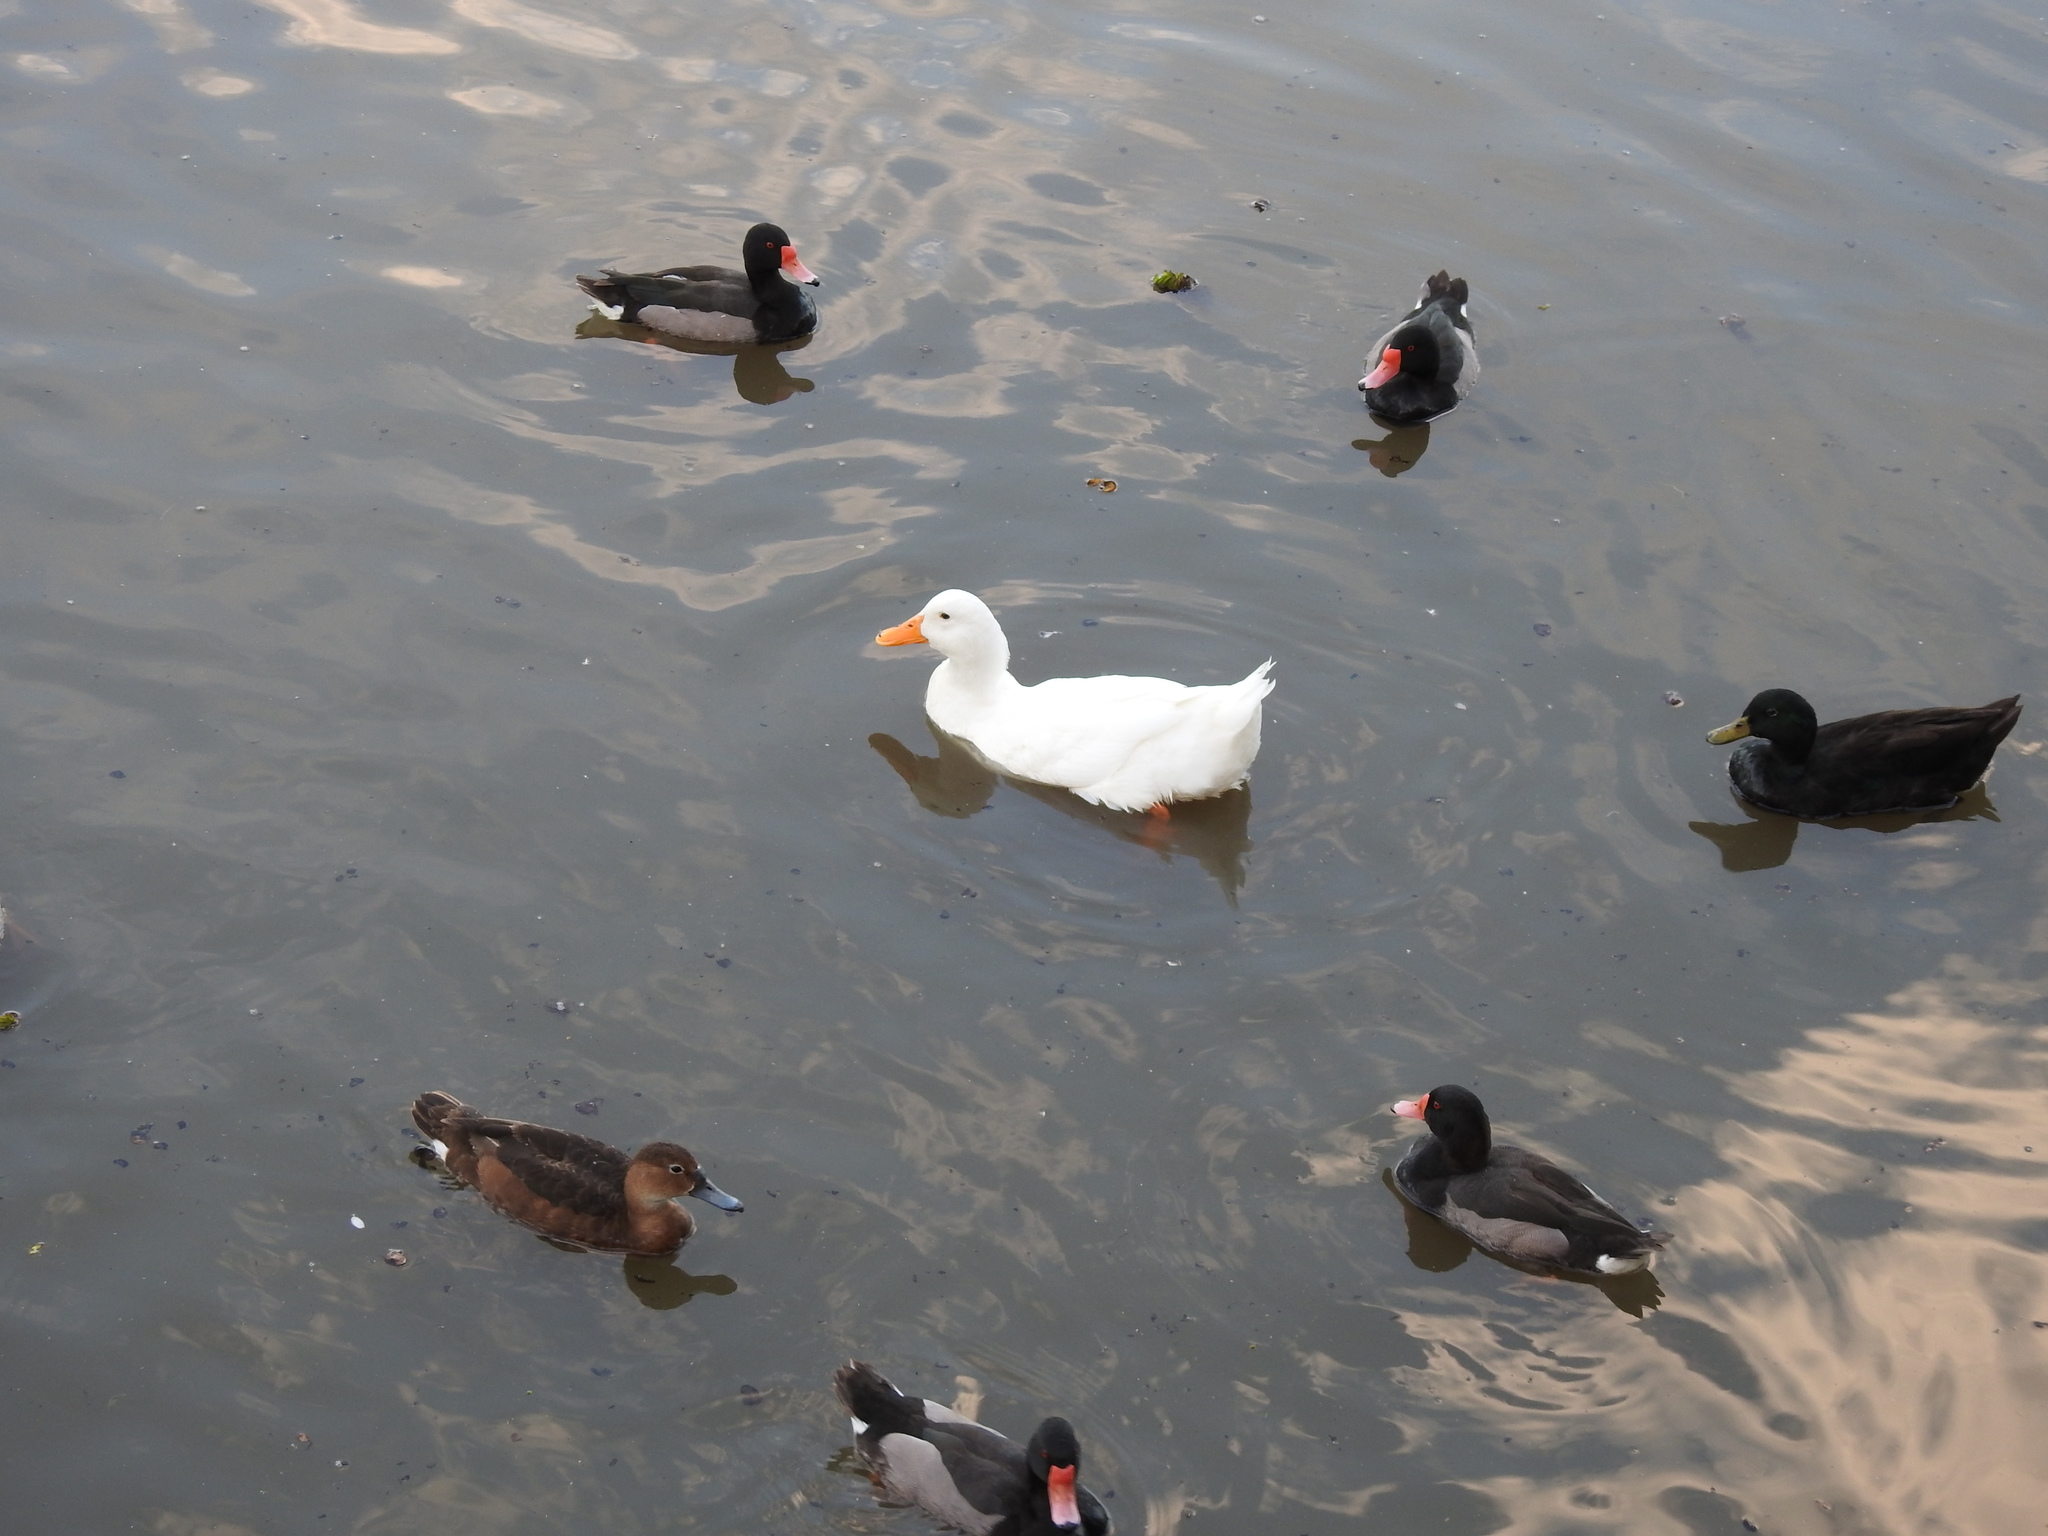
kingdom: Animalia
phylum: Chordata
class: Aves
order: Anseriformes
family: Anatidae
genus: Anas
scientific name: Anas platyrhynchos
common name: Mallard
